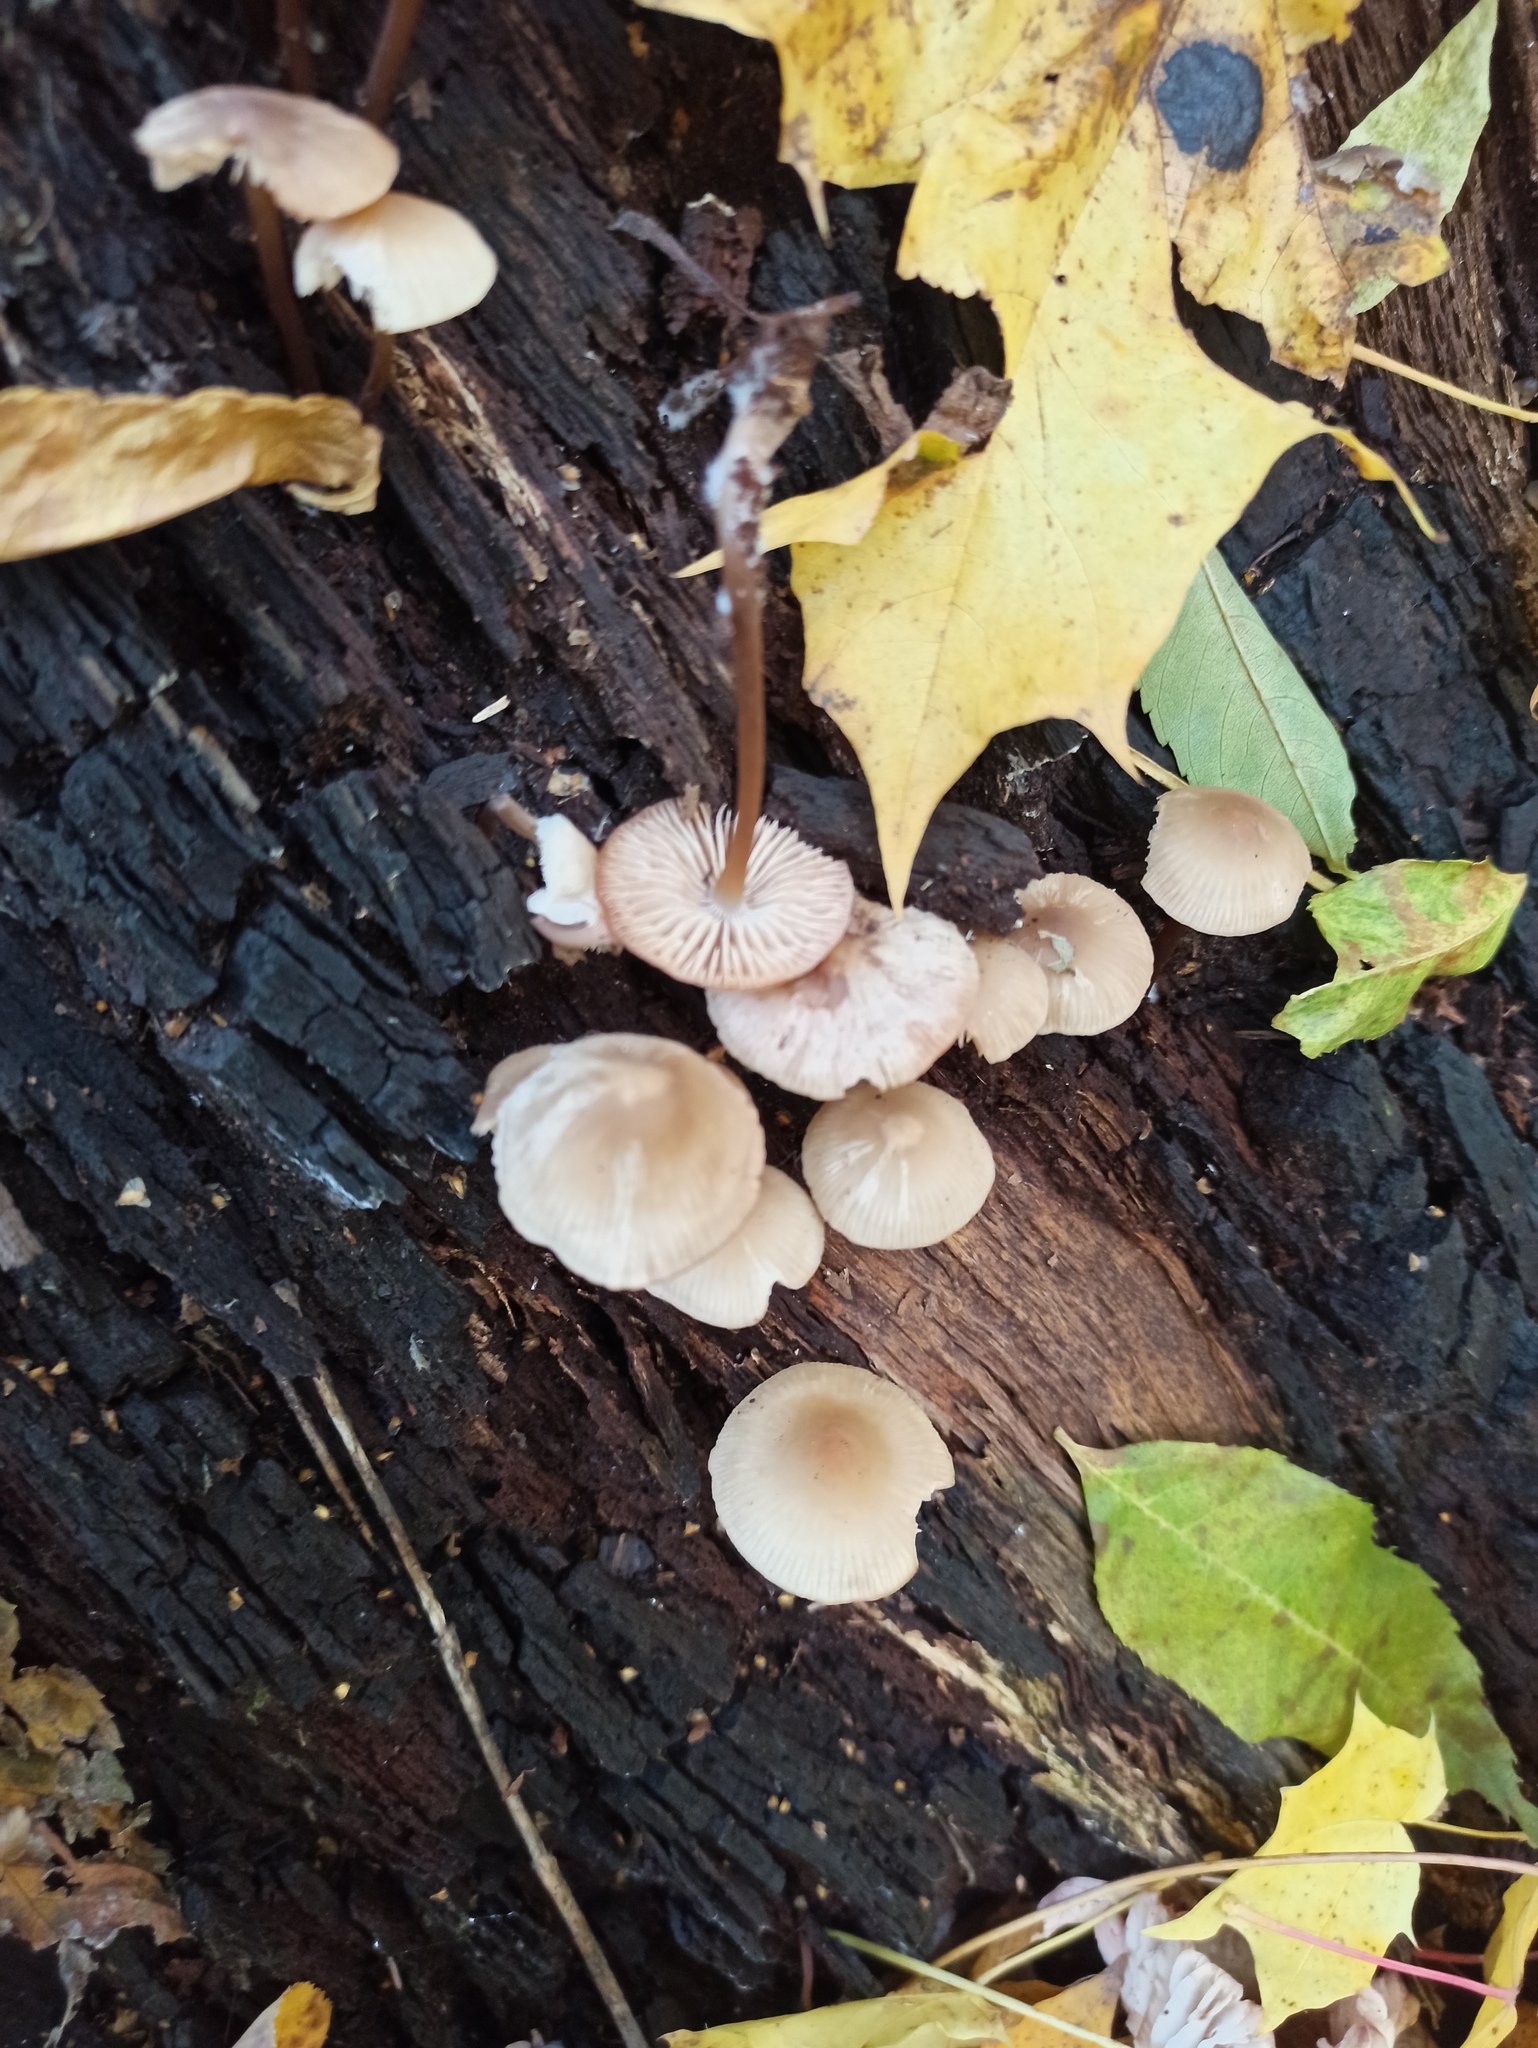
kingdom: Fungi
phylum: Basidiomycota
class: Agaricomycetes
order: Agaricales
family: Mycenaceae
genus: Mycena
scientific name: Mycena galericulata
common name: Bonnet mycena
